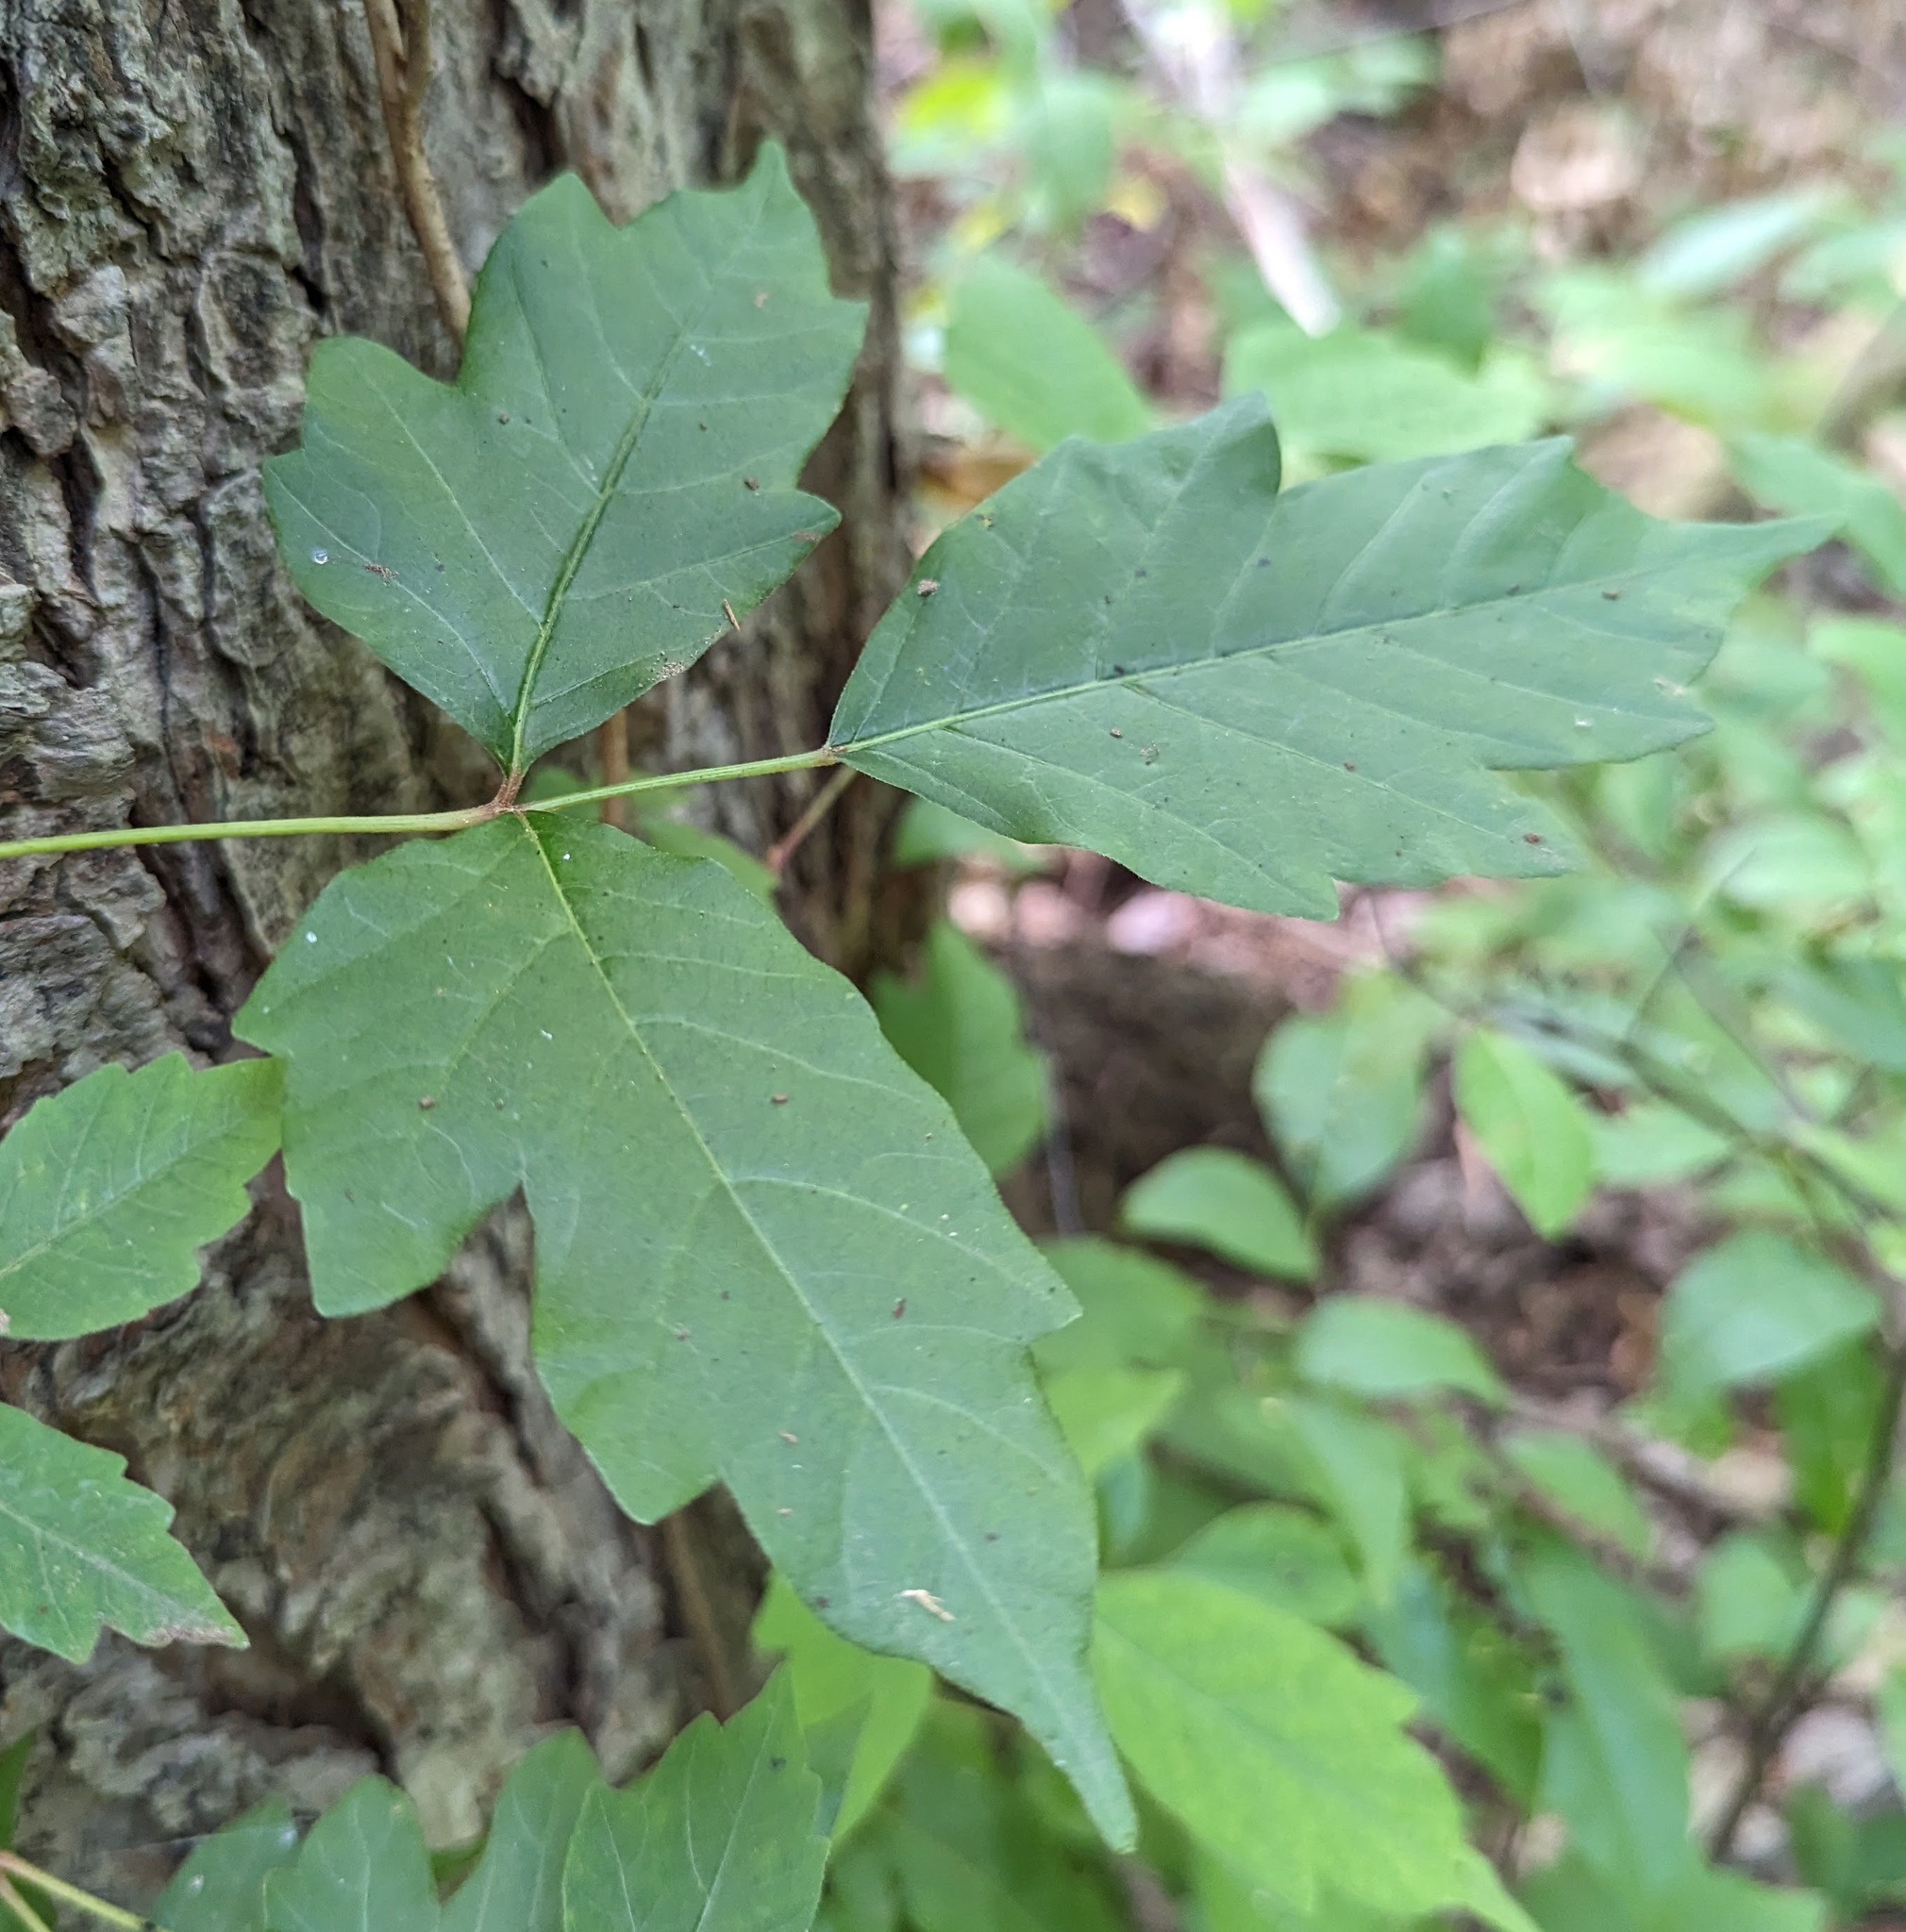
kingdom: Plantae
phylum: Tracheophyta
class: Magnoliopsida
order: Sapindales
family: Anacardiaceae
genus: Toxicodendron
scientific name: Toxicodendron radicans
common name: Poison ivy
